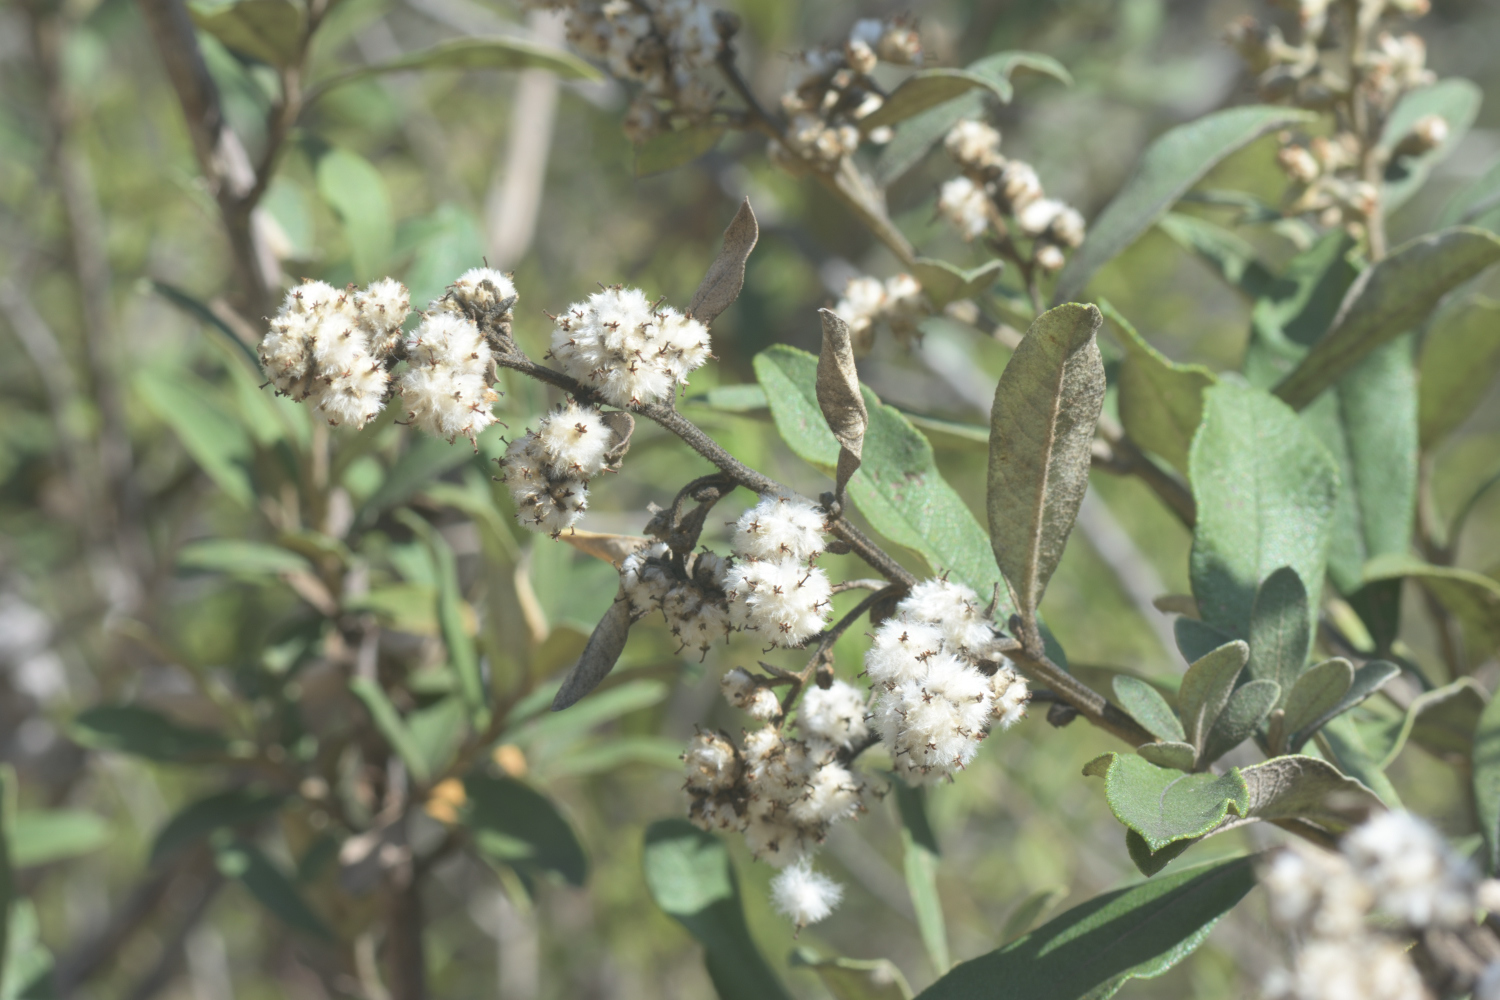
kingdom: Plantae
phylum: Tracheophyta
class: Magnoliopsida
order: Asterales
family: Asteraceae
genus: Tarchonanthus
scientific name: Tarchonanthus littoralis
